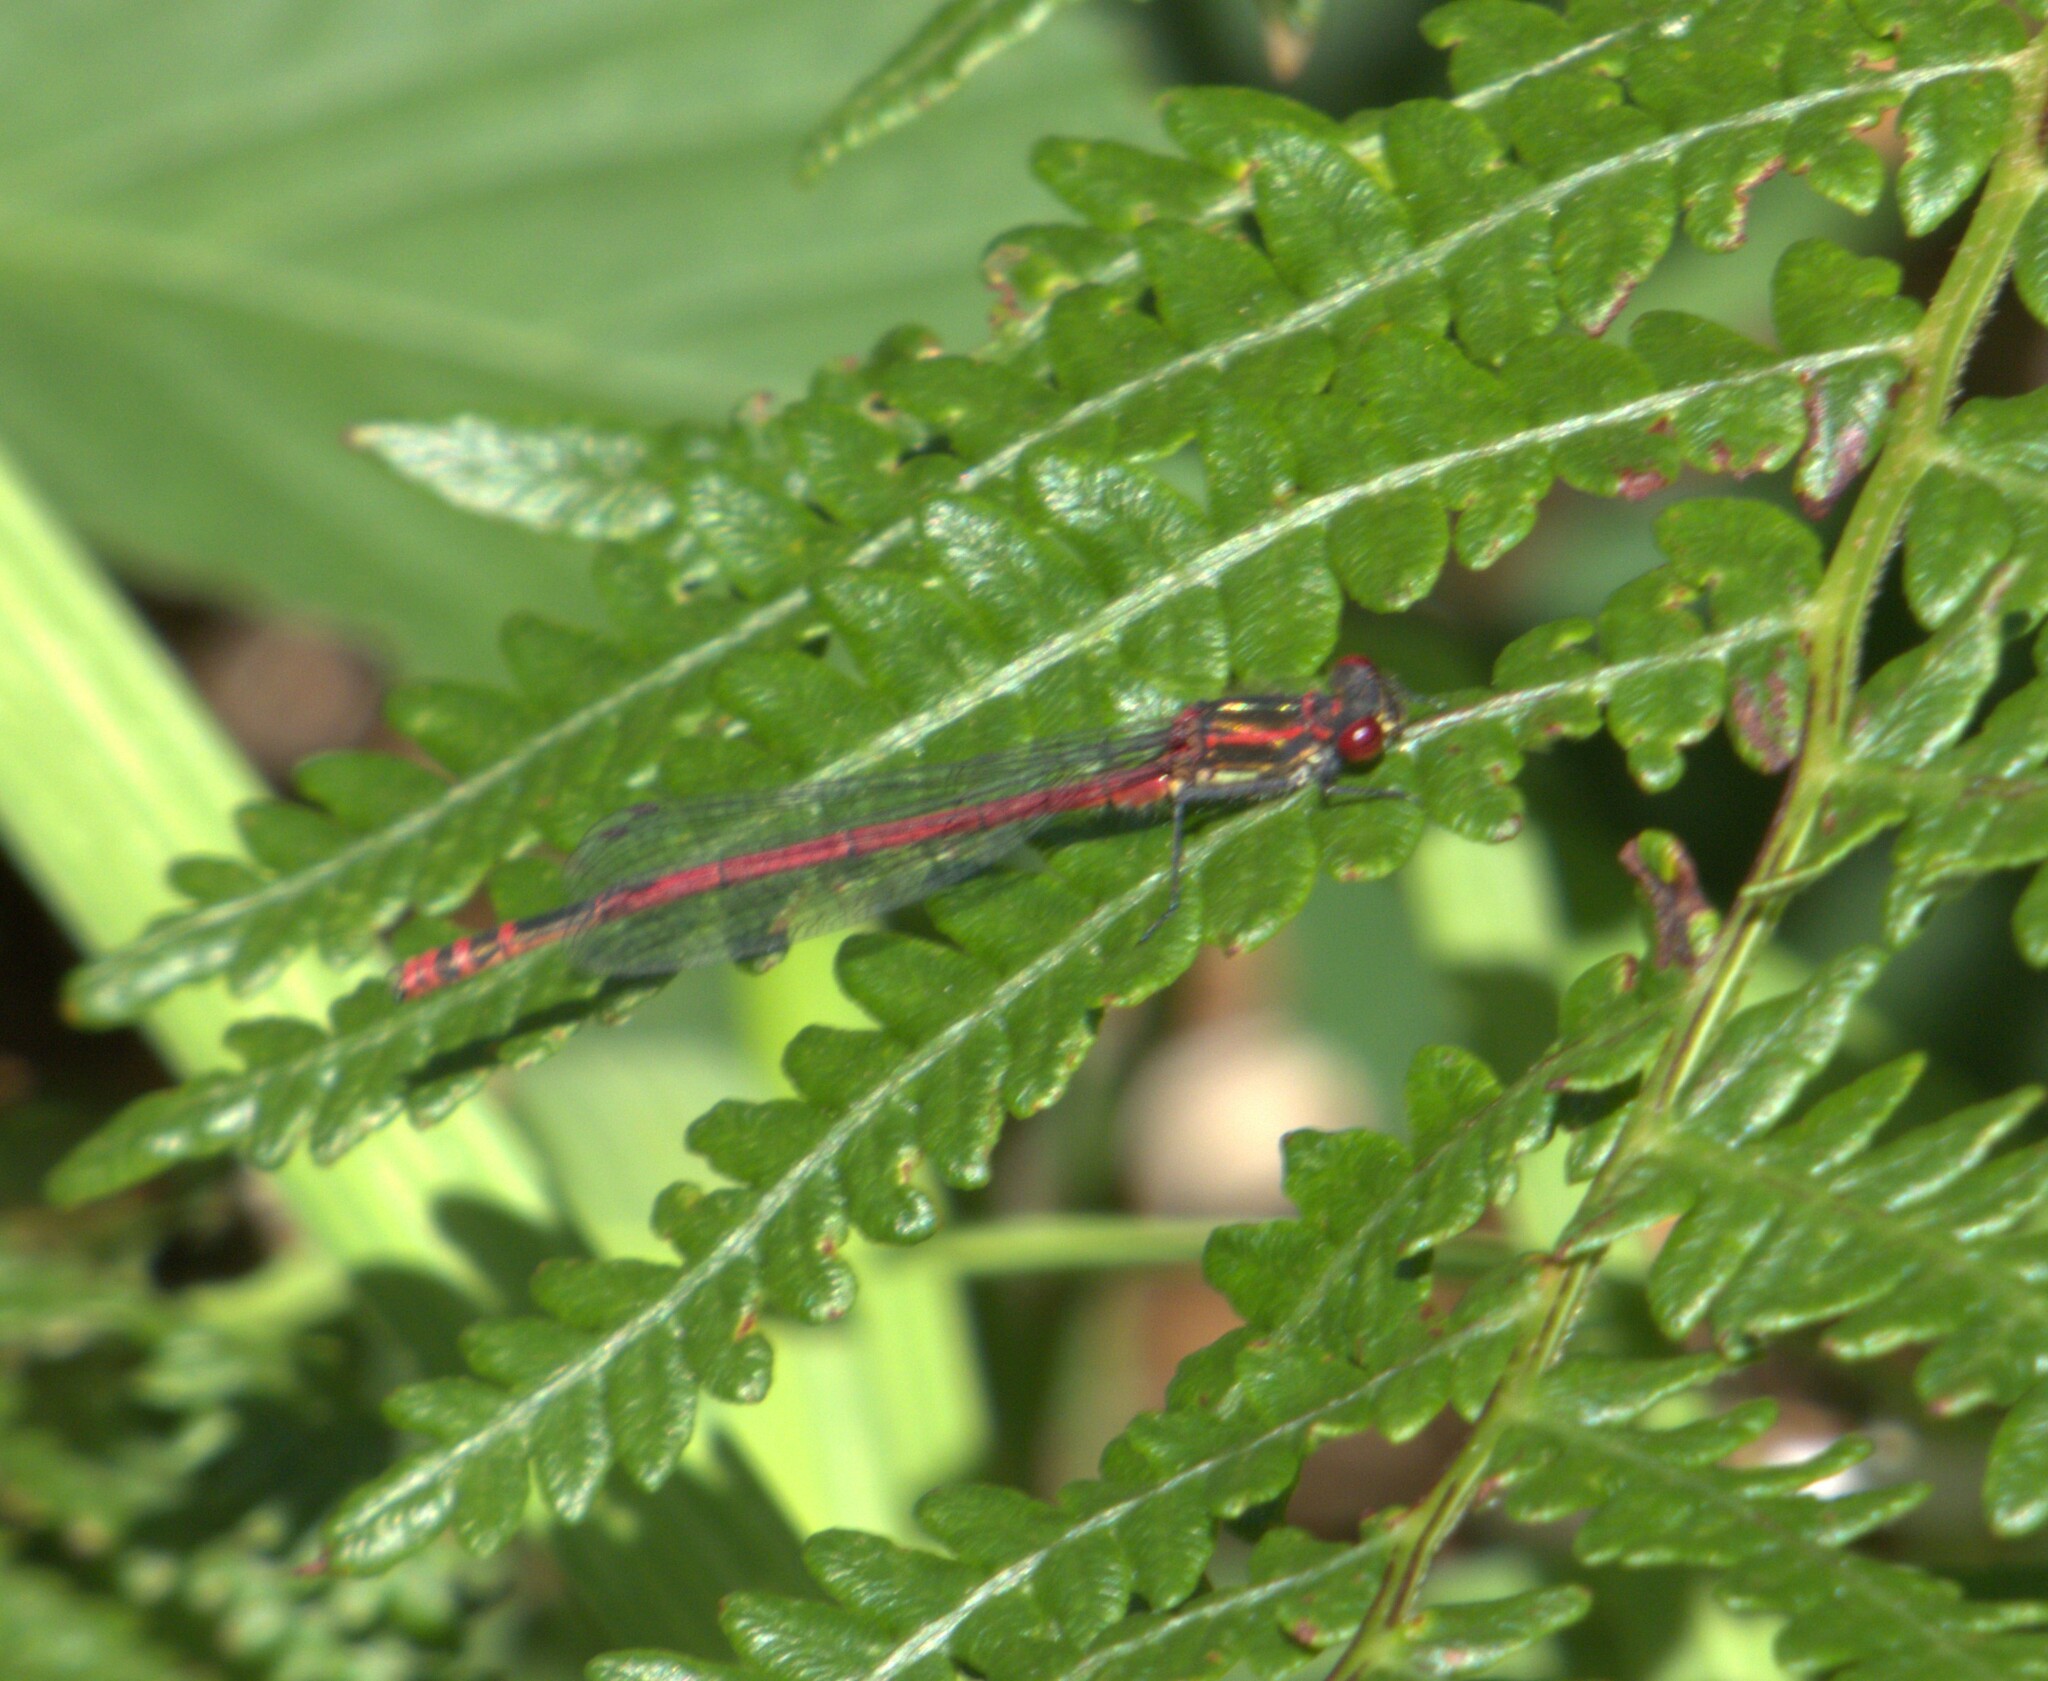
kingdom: Animalia
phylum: Arthropoda
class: Insecta
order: Odonata
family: Coenagrionidae
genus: Pyrrhosoma
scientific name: Pyrrhosoma nymphula
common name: Large red damsel
